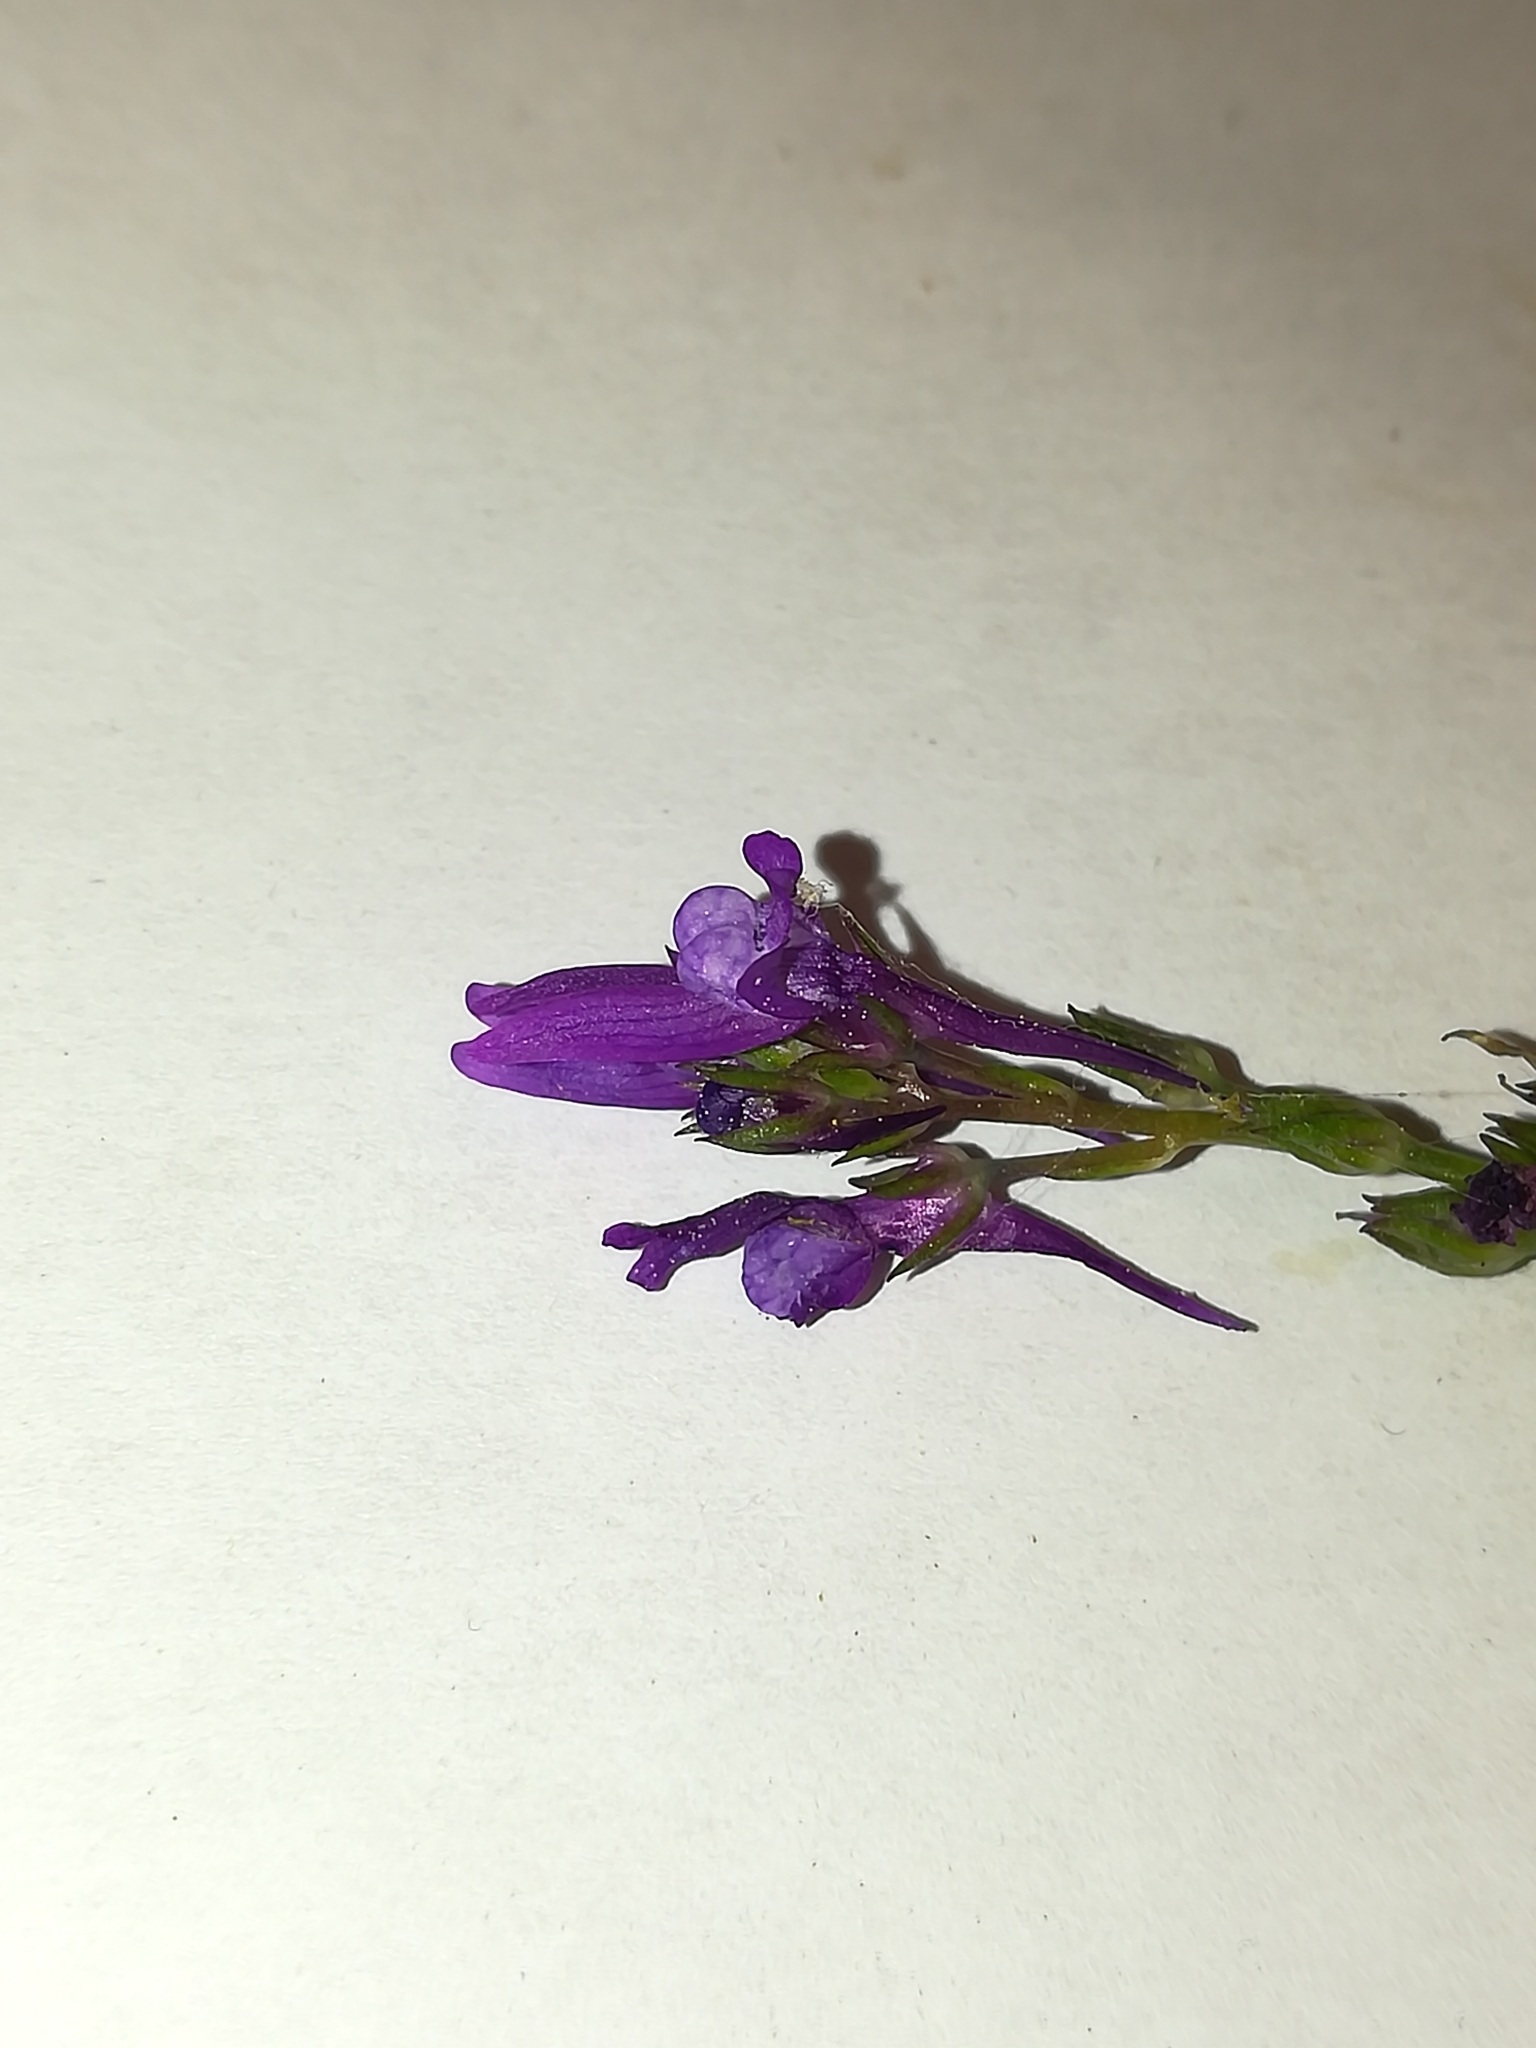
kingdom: Plantae
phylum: Tracheophyta
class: Magnoliopsida
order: Lamiales
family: Plantaginaceae
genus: Linaria
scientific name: Linaria pelisseriana
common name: Jersey toadflax
